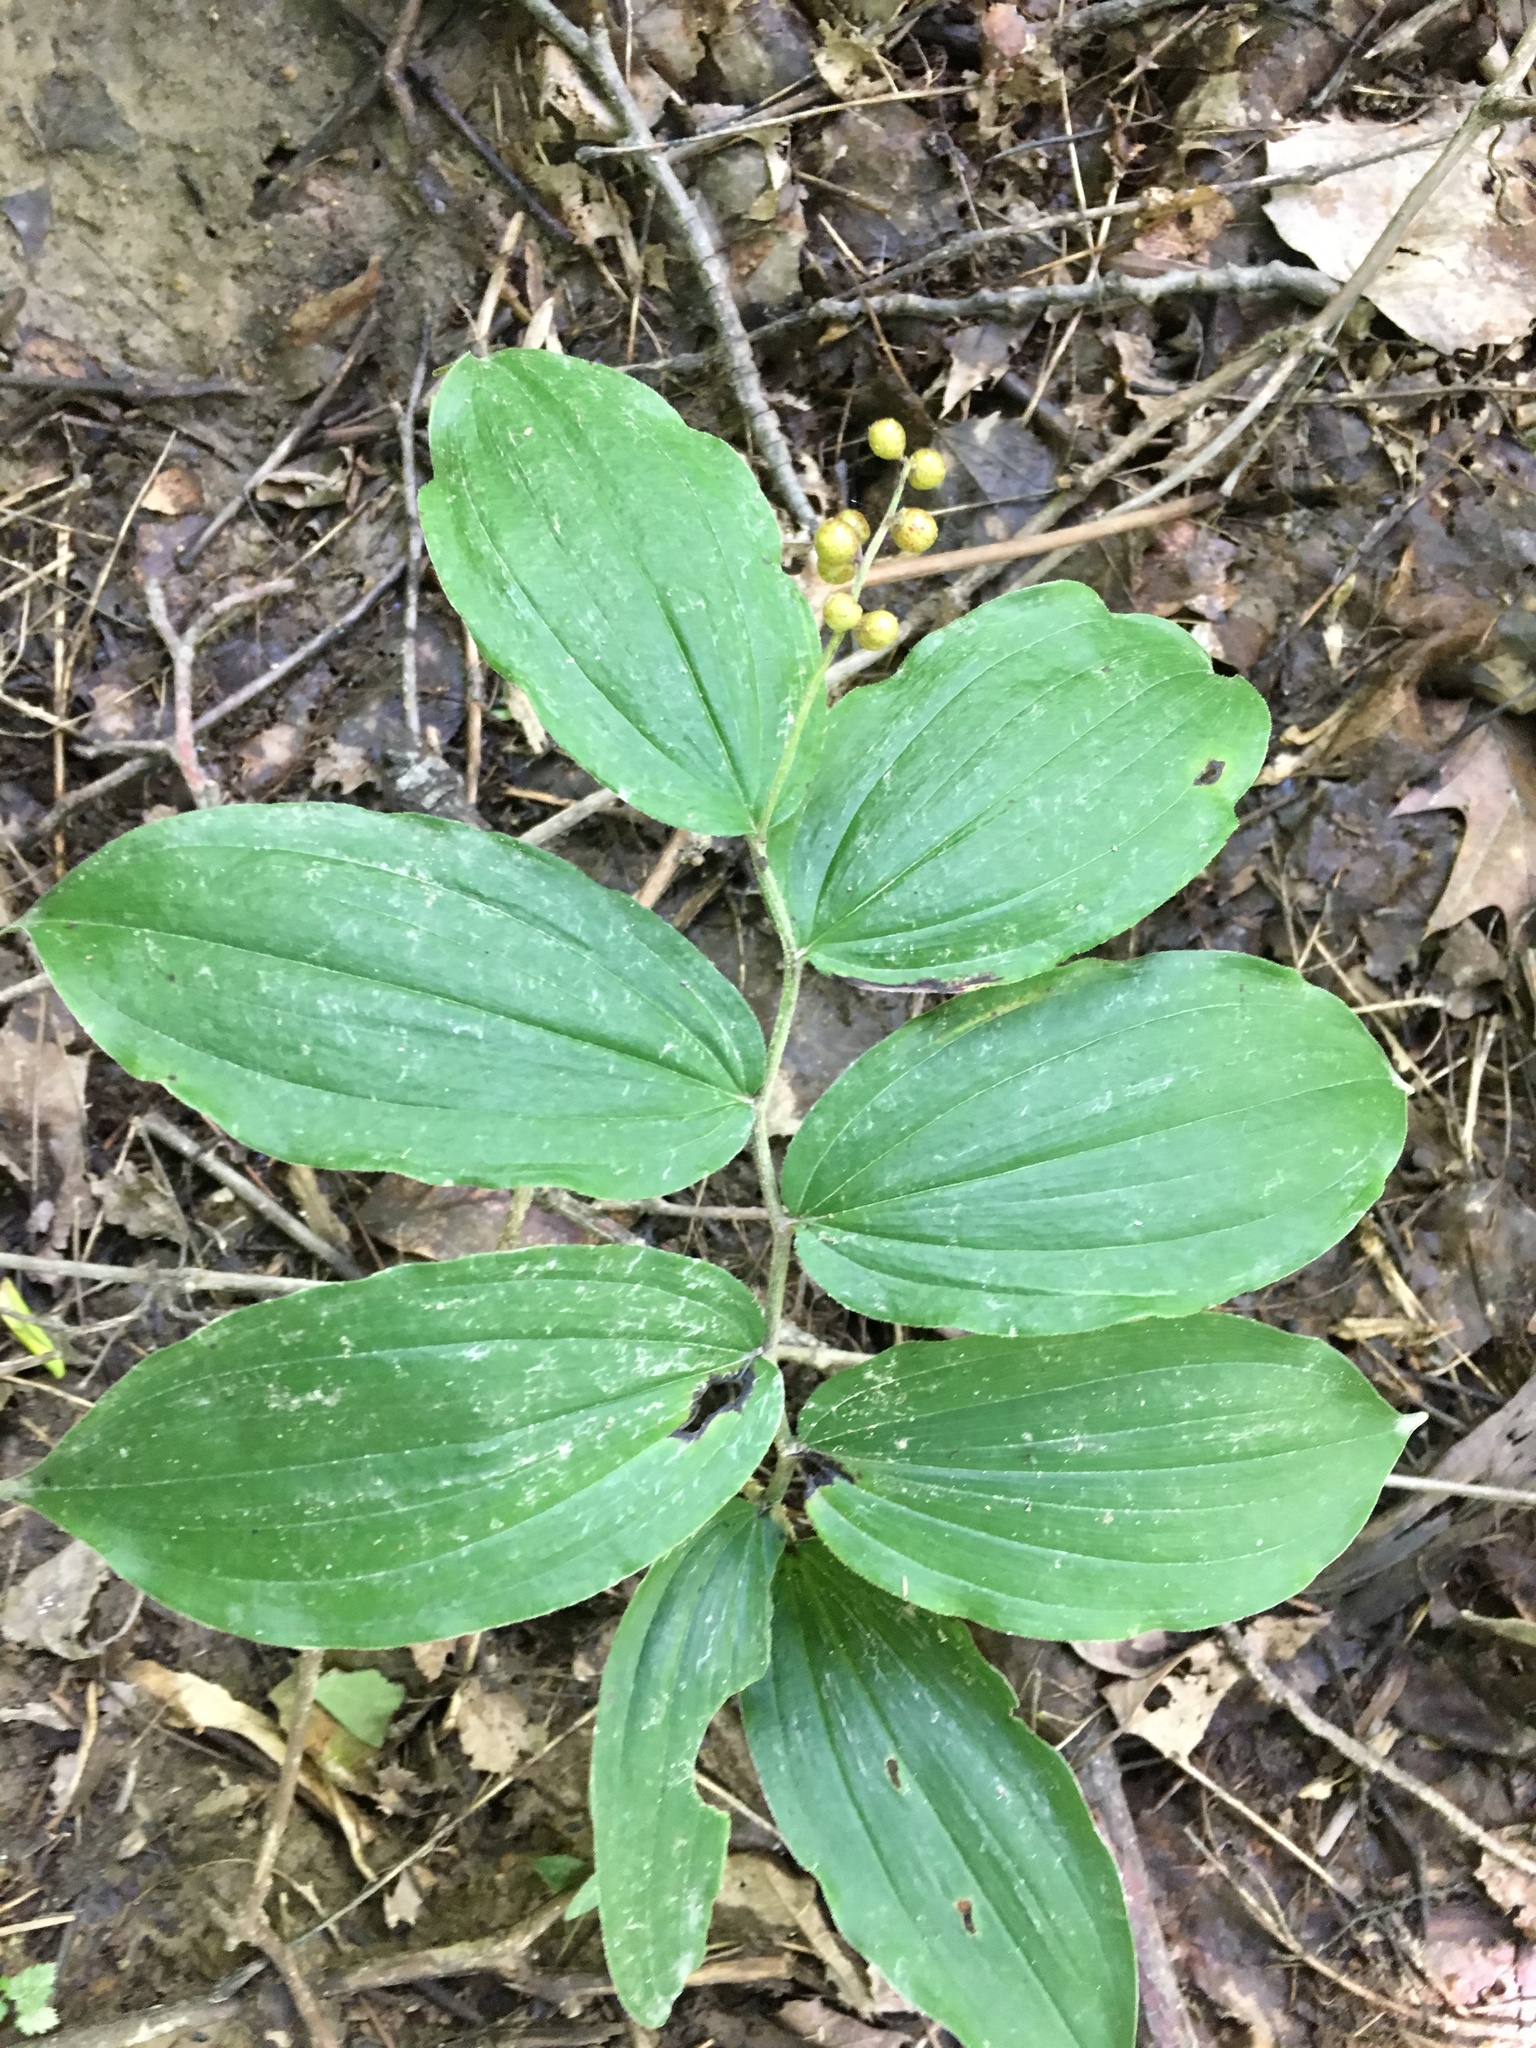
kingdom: Plantae
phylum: Tracheophyta
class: Liliopsida
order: Asparagales
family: Asparagaceae
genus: Maianthemum
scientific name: Maianthemum racemosum
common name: False spikenard
